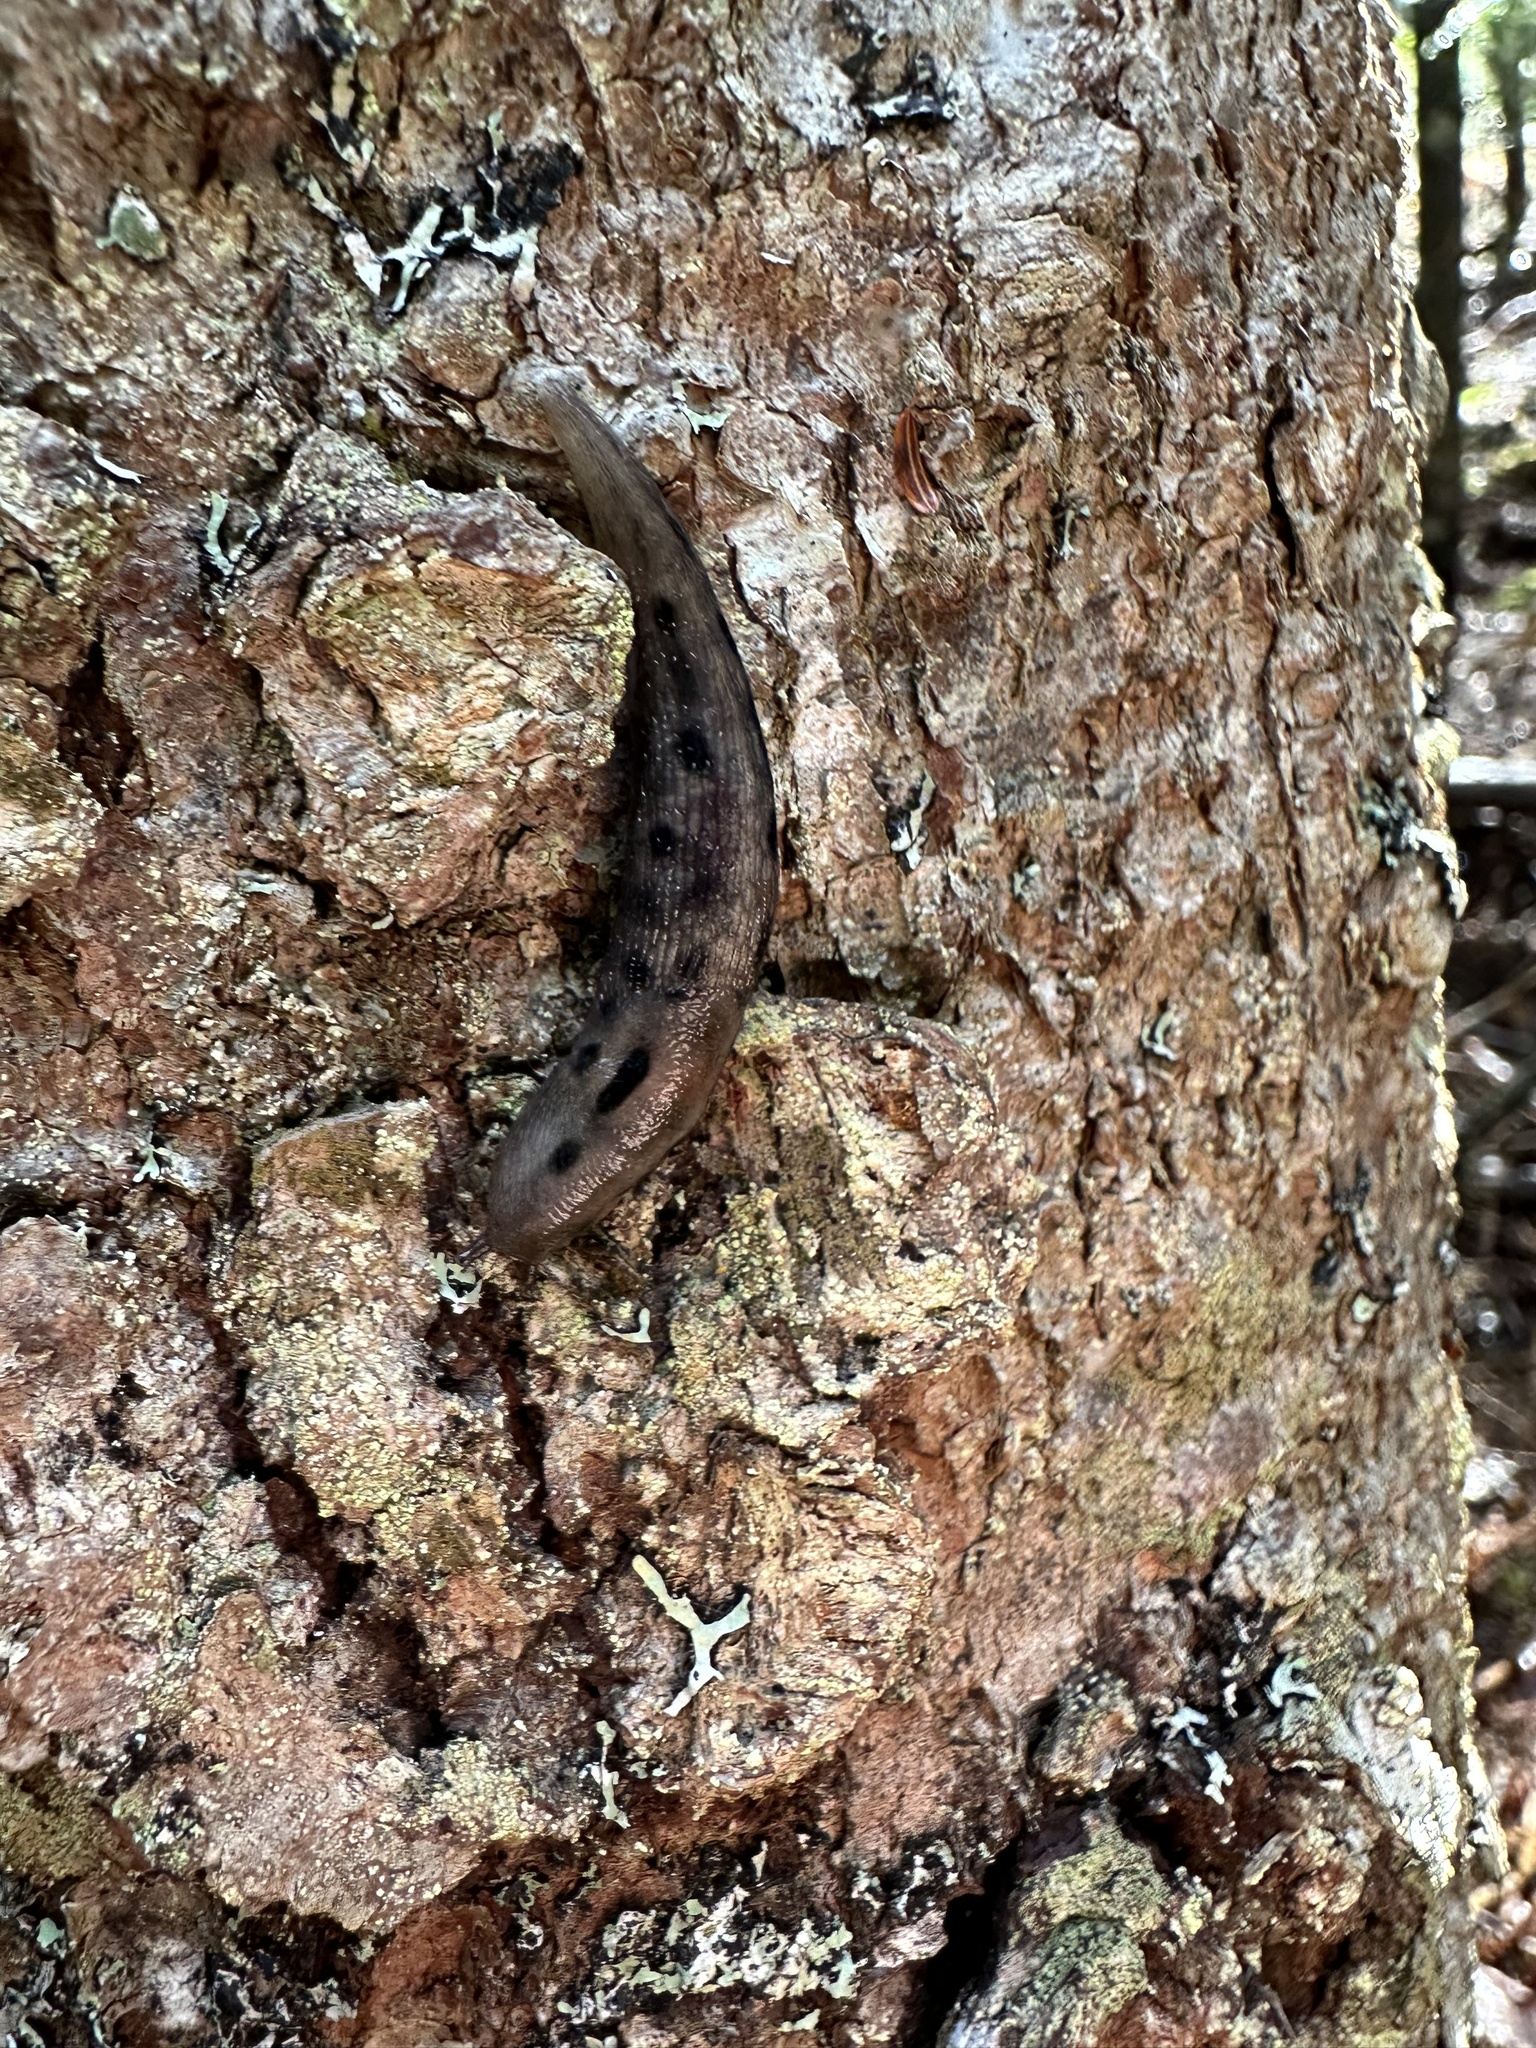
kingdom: Animalia
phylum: Mollusca
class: Gastropoda
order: Stylommatophora
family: Limacidae
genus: Lehmannia
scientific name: Lehmannia marginata
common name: Tree slug
